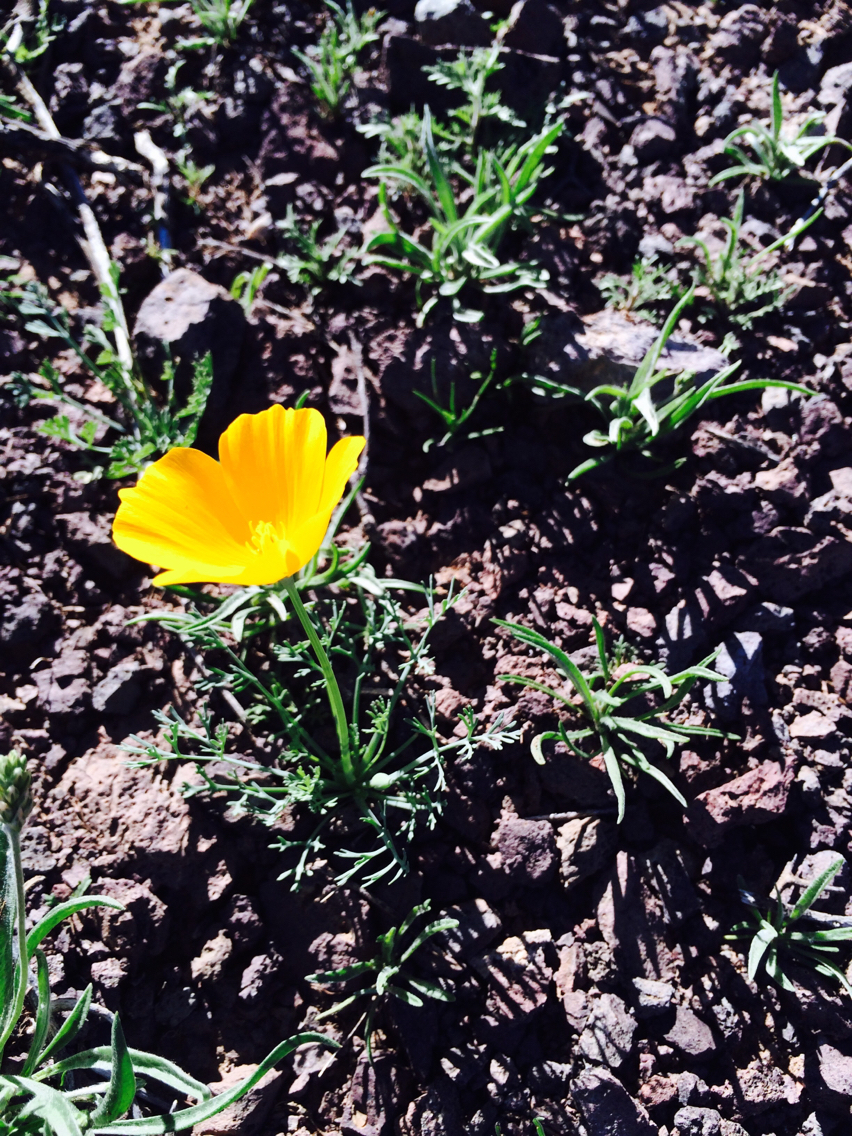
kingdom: Plantae
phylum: Tracheophyta
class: Magnoliopsida
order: Ranunculales
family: Papaveraceae
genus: Eschscholzia
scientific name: Eschscholzia californica
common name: California poppy
